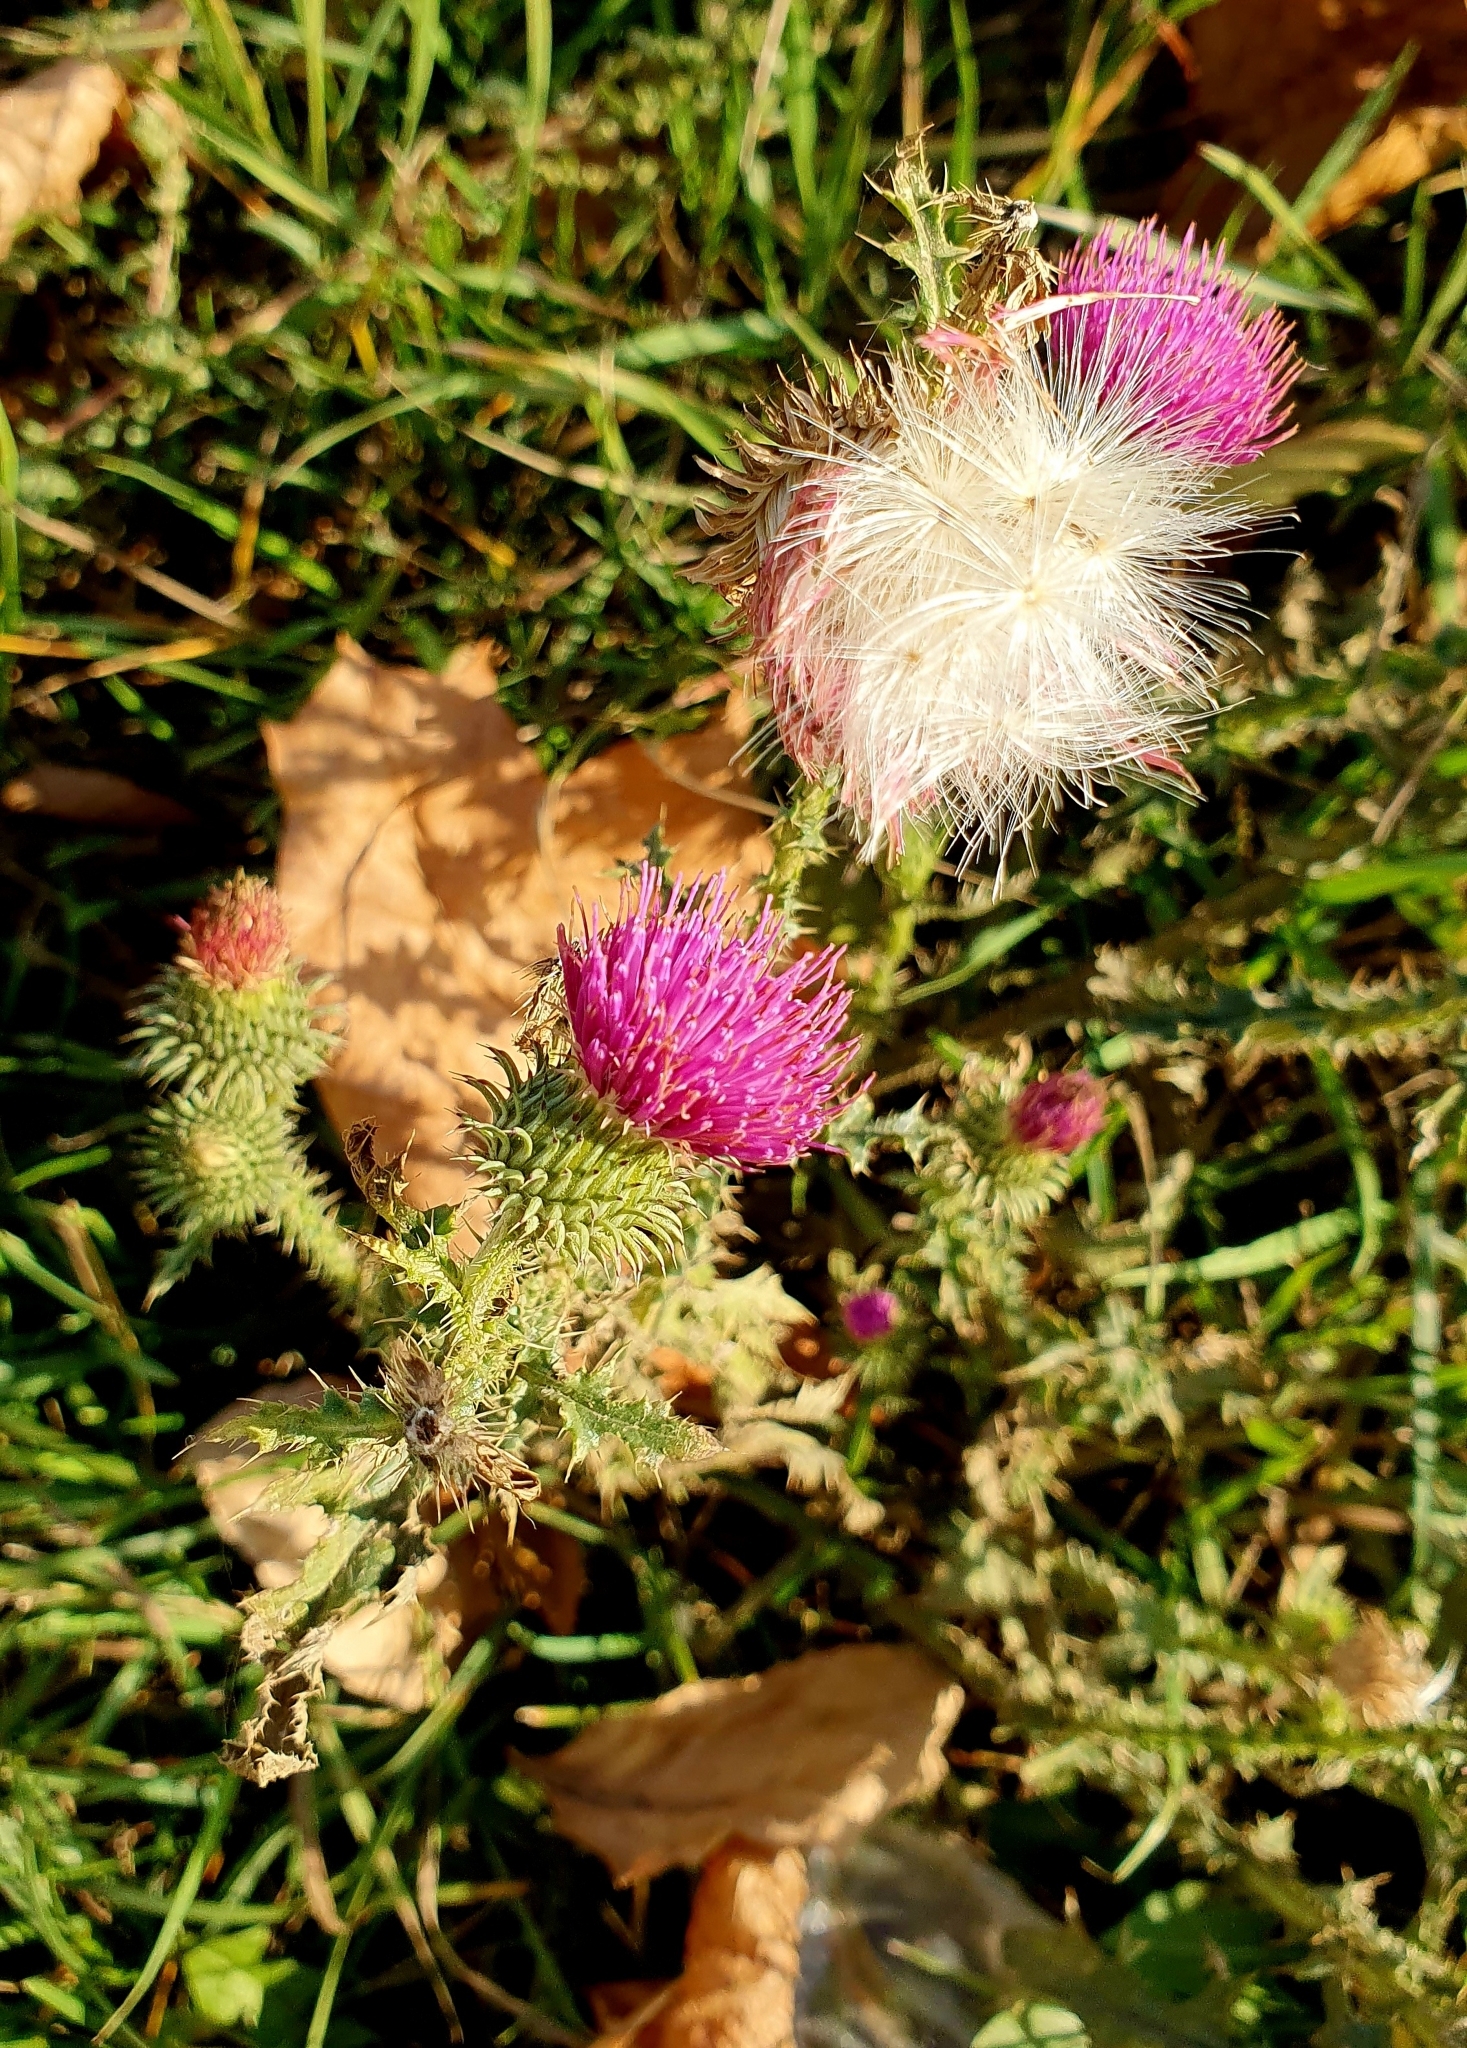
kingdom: Plantae
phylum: Tracheophyta
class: Magnoliopsida
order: Asterales
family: Asteraceae
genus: Carduus
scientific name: Carduus acanthoides
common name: Plumeless thistle
